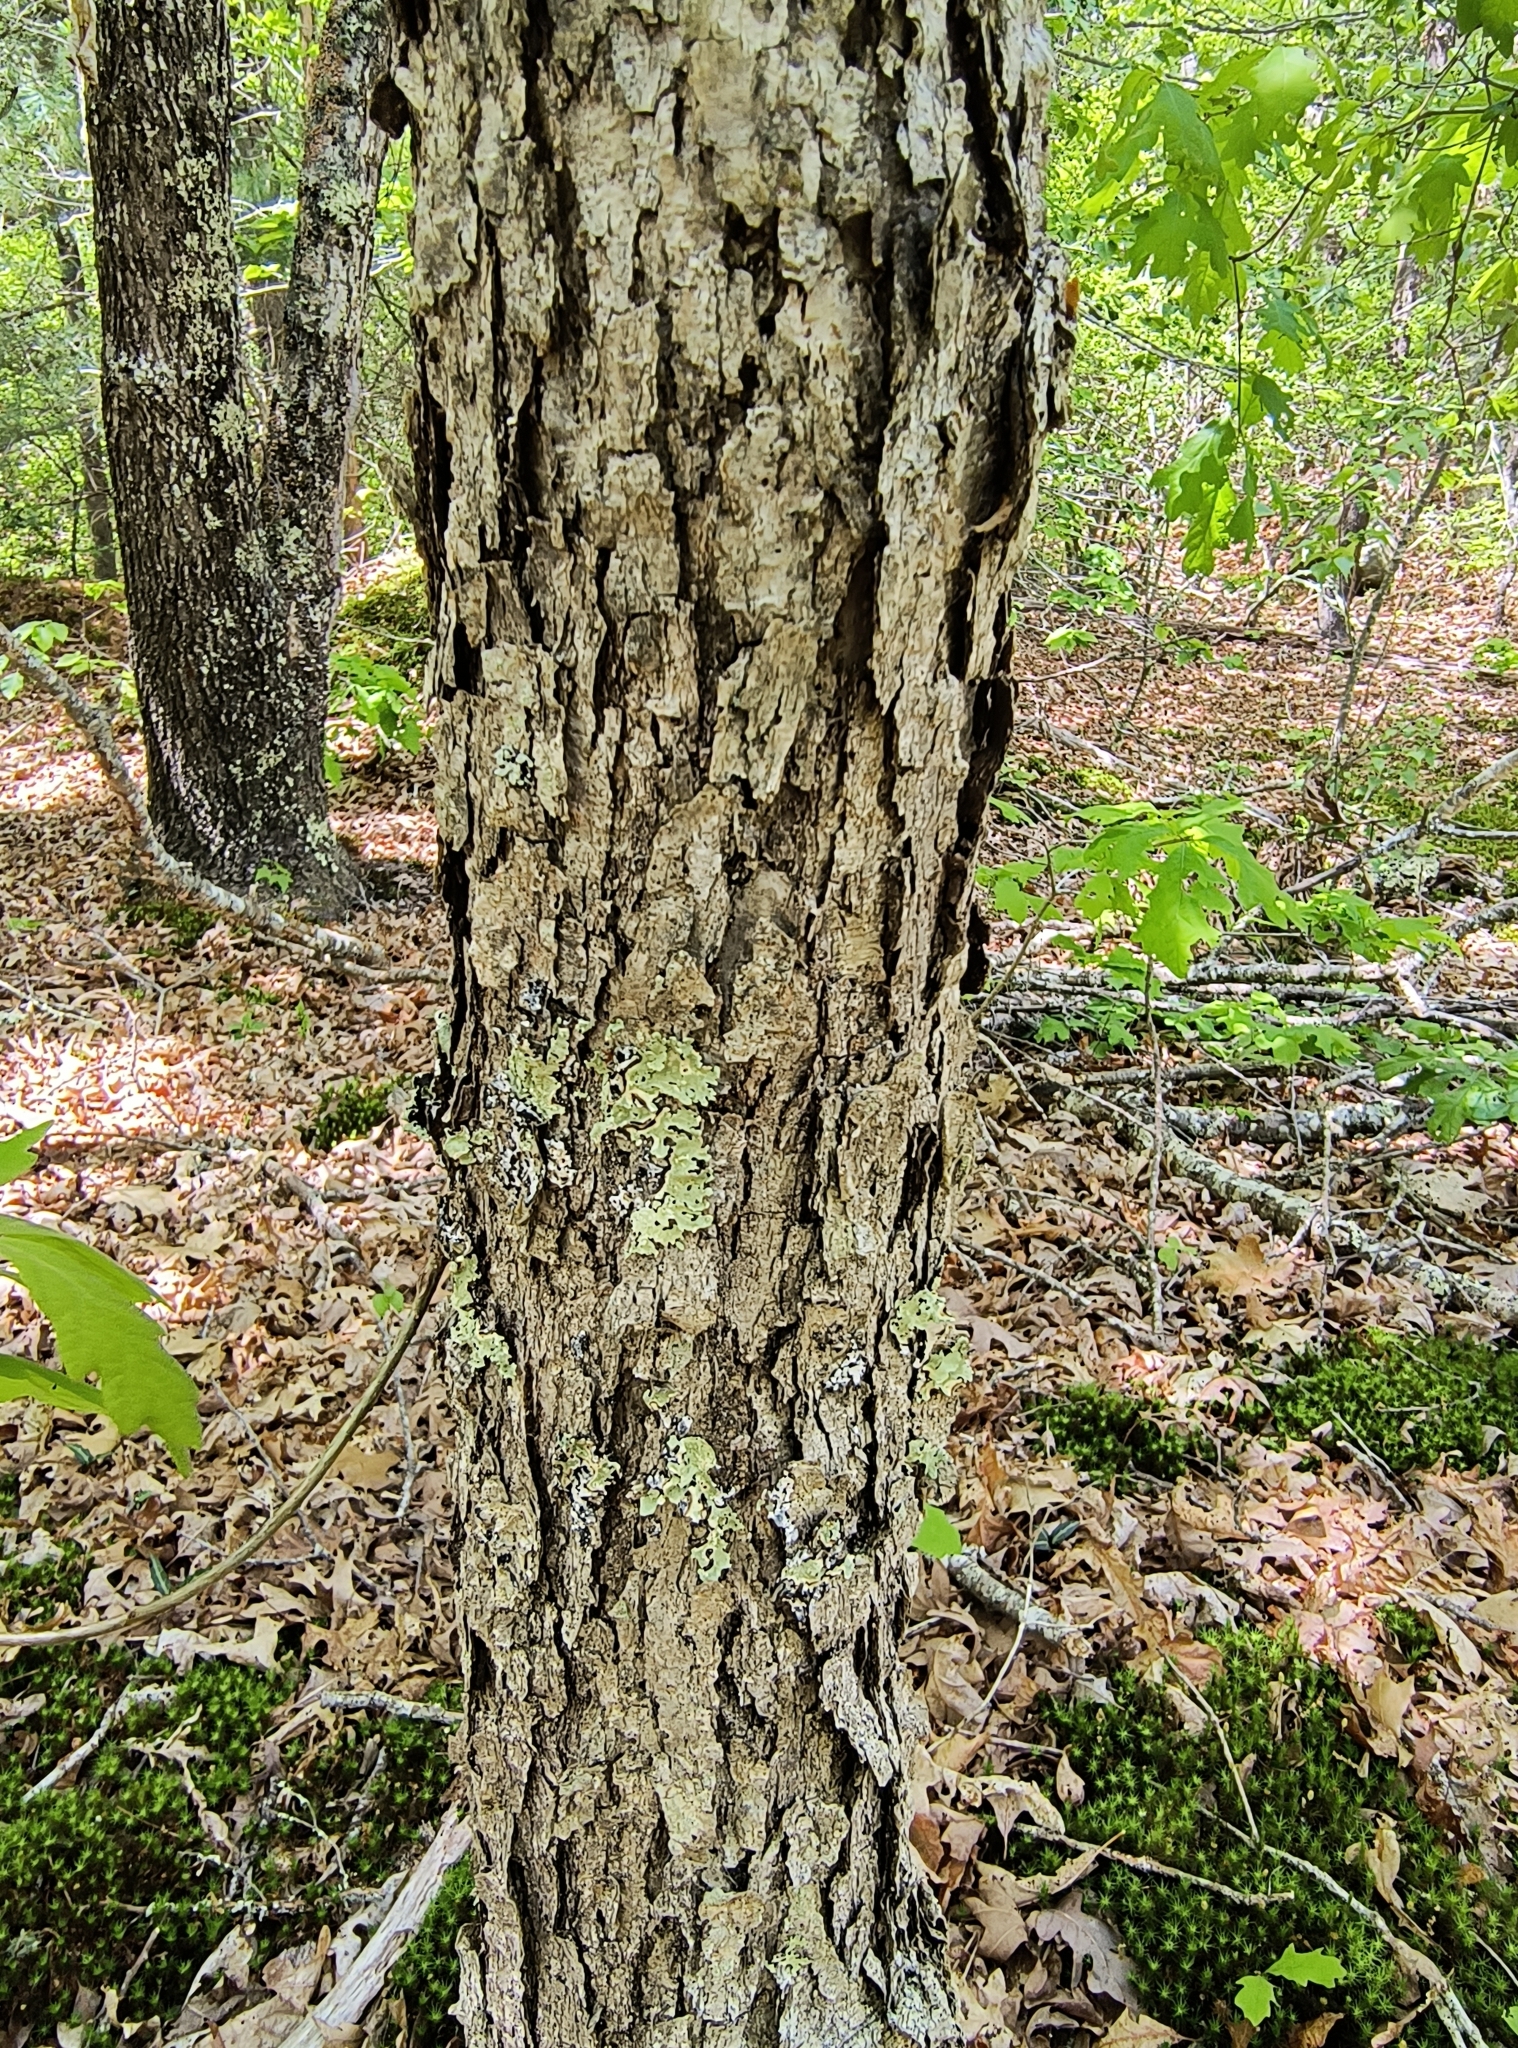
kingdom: Plantae
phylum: Tracheophyta
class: Magnoliopsida
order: Fagales
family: Fagaceae
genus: Quercus
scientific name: Quercus alba
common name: White oak
